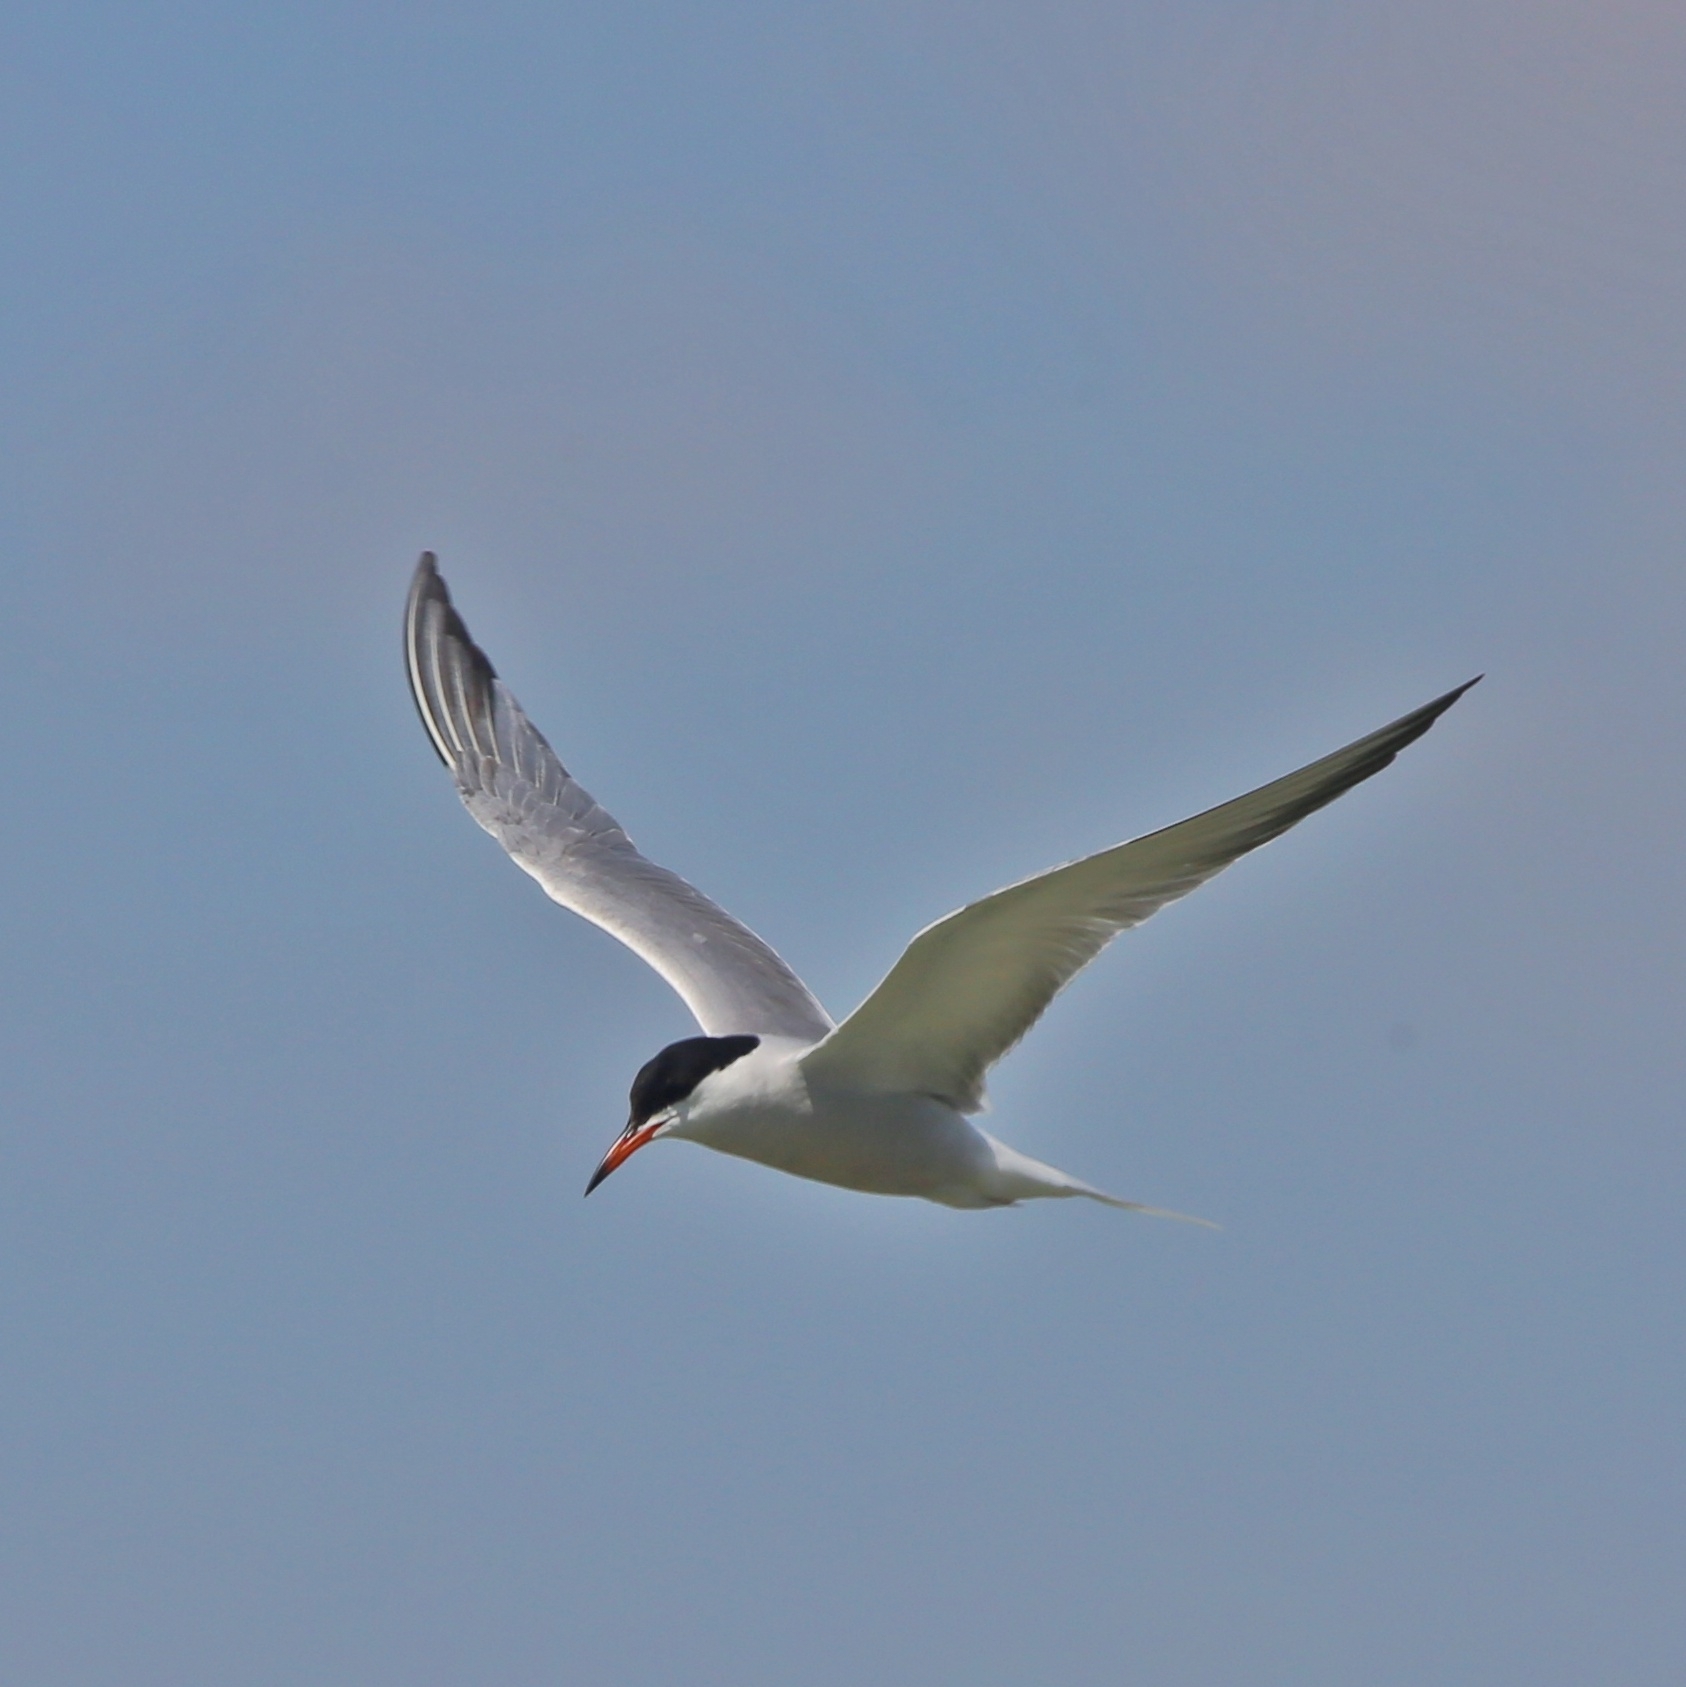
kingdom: Animalia
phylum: Chordata
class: Aves
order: Charadriiformes
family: Laridae
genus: Sterna
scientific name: Sterna hirundo
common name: Common tern
